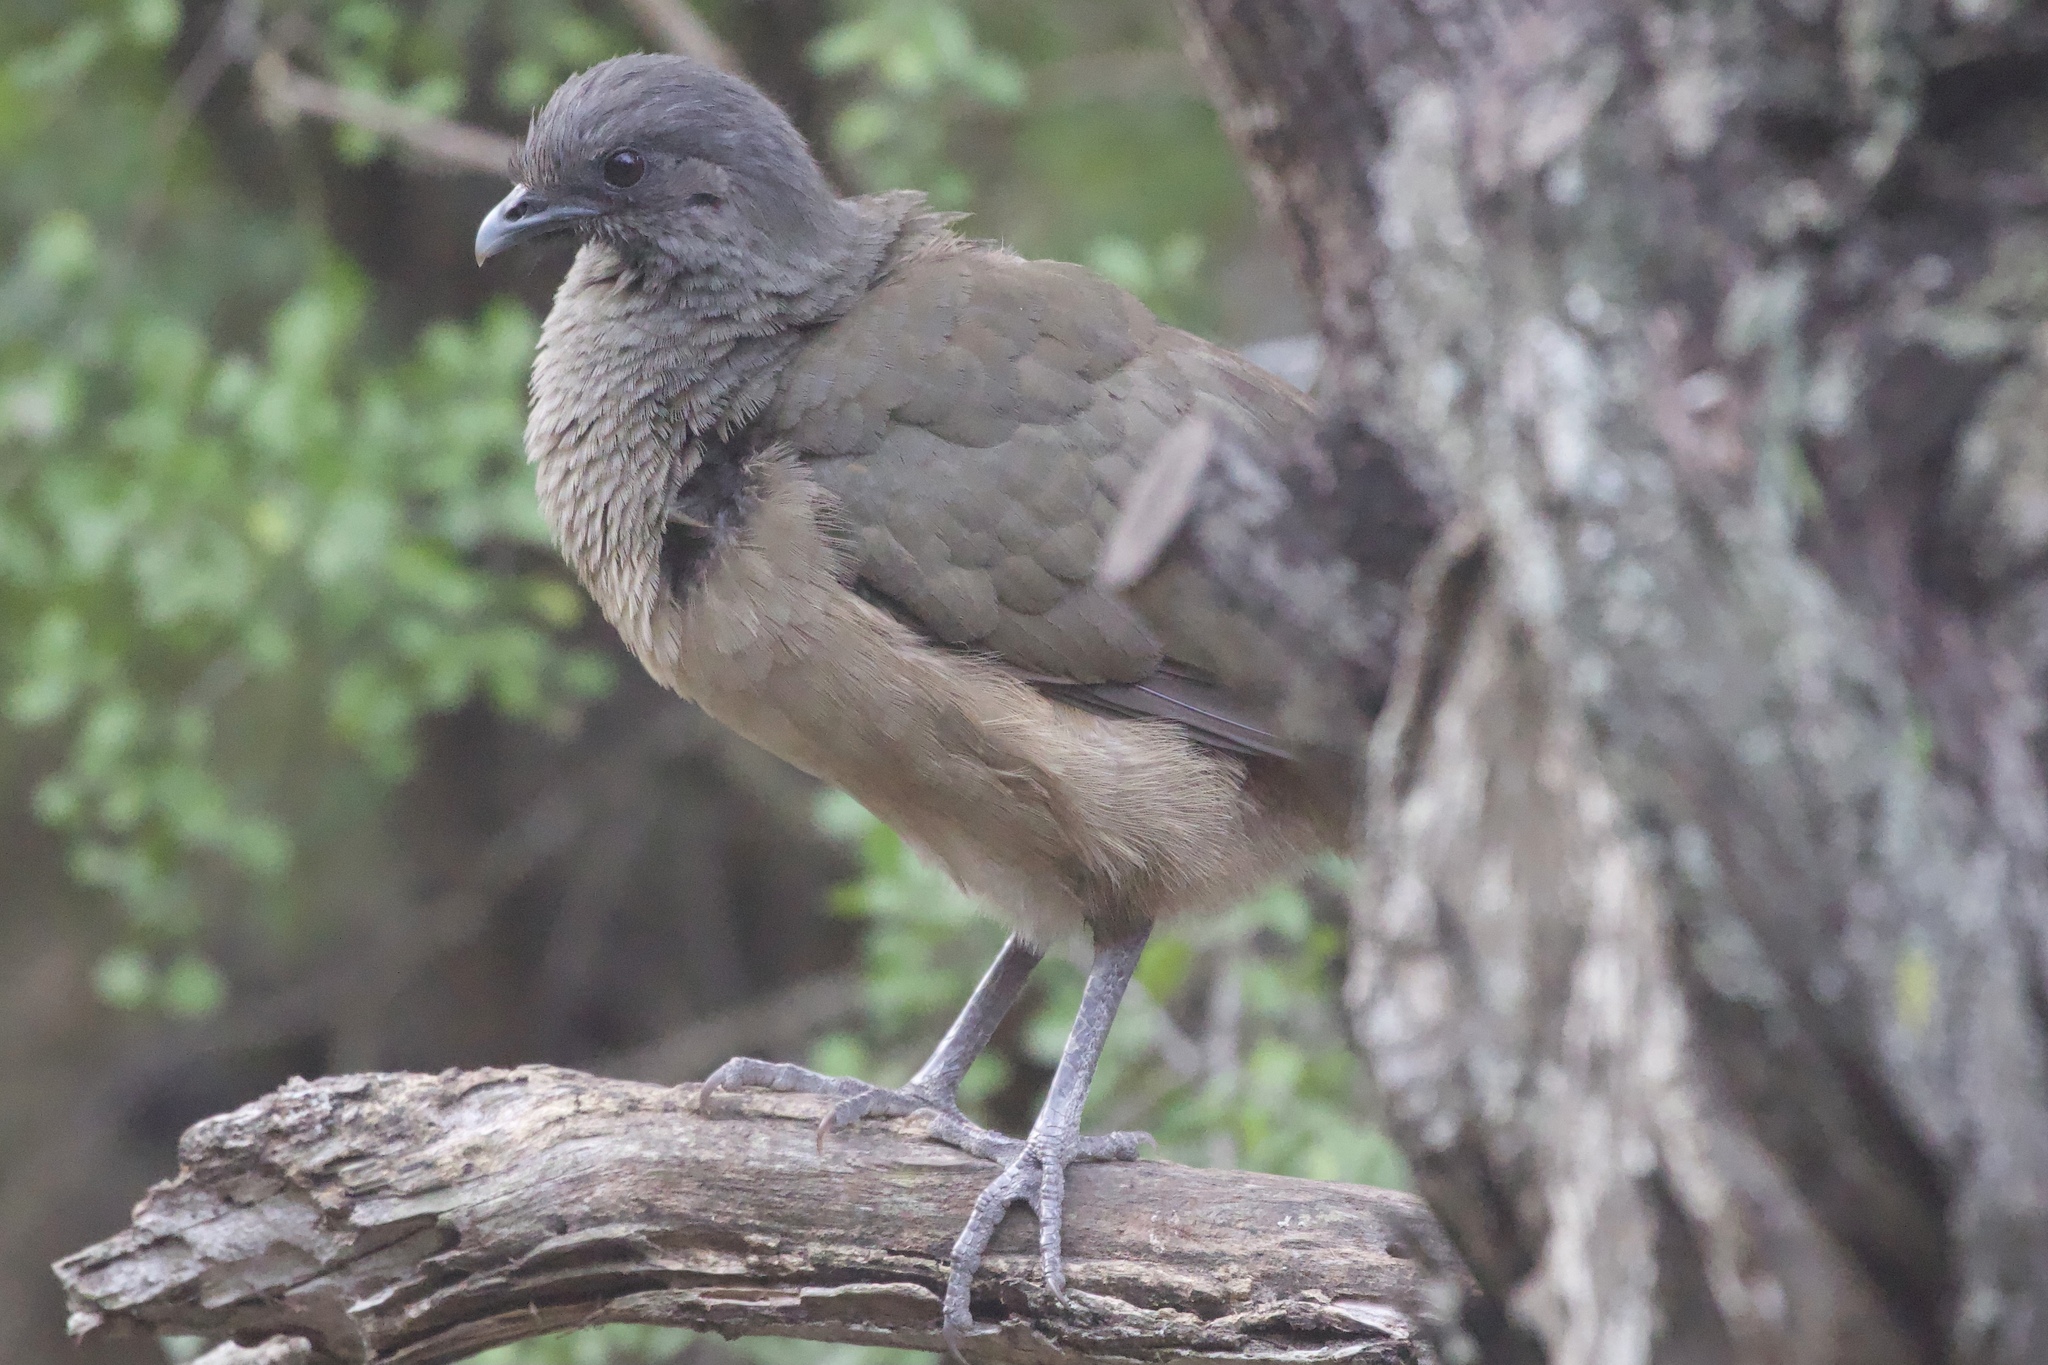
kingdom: Animalia
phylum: Chordata
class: Aves
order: Galliformes
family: Cracidae
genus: Ortalis
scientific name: Ortalis vetula
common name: Plain chachalaca
